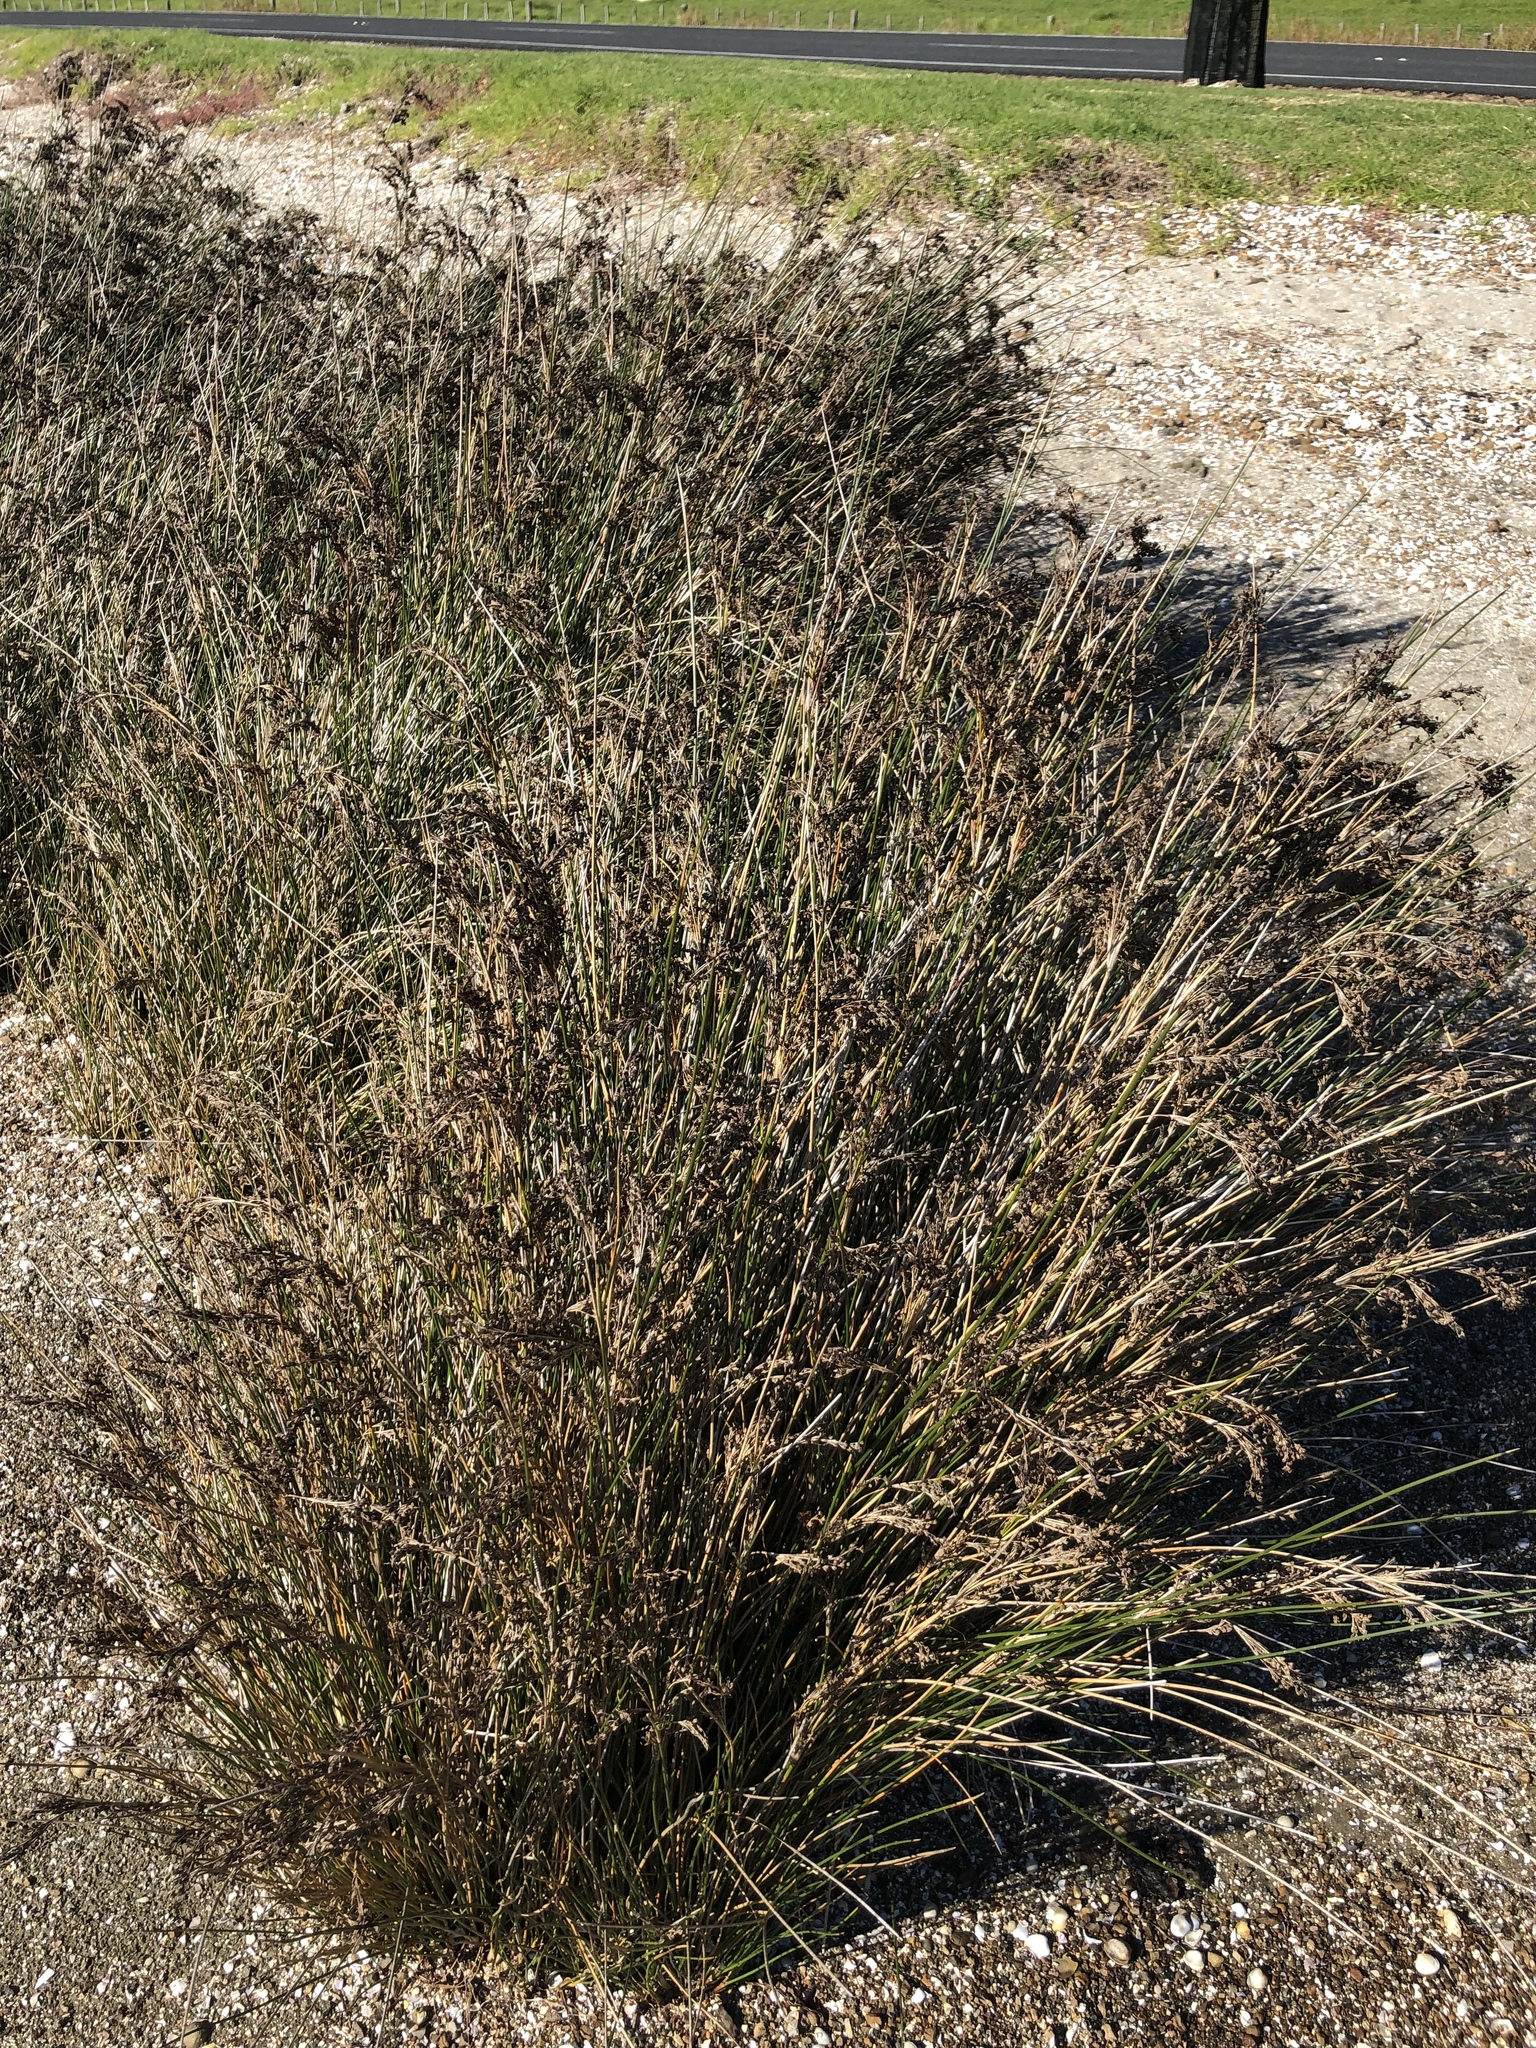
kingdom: Plantae
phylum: Tracheophyta
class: Liliopsida
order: Poales
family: Juncaceae
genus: Juncus
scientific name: Juncus kraussii
